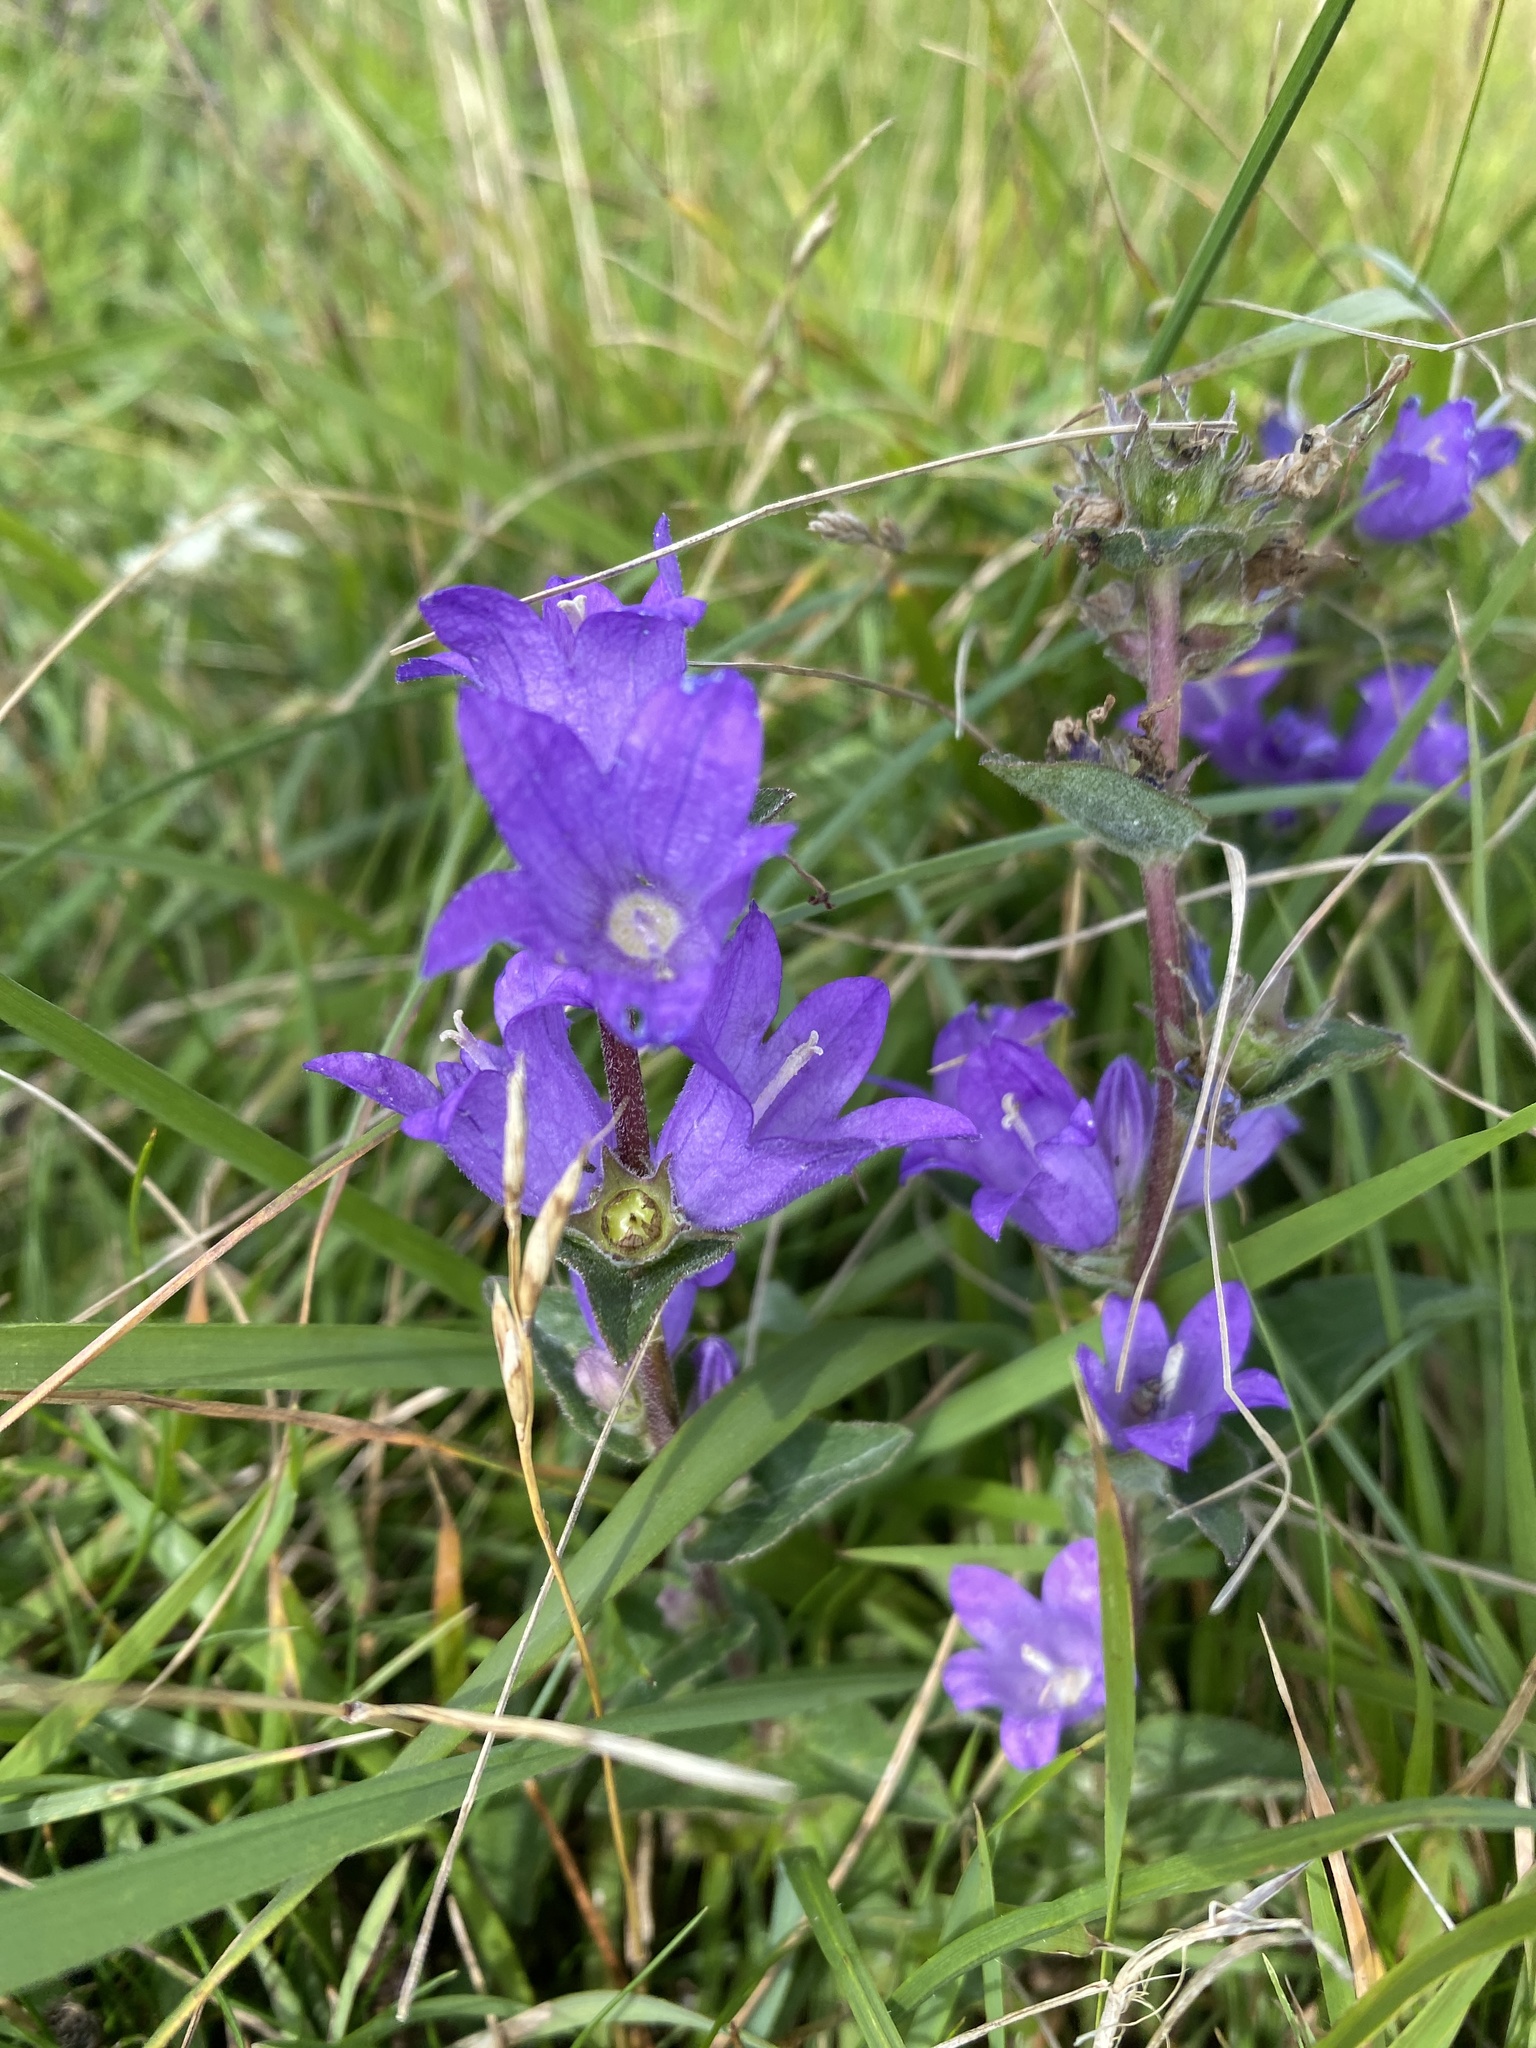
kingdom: Plantae
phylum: Tracheophyta
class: Magnoliopsida
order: Asterales
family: Campanulaceae
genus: Campanula
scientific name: Campanula glomerata
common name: Clustered bellflower
